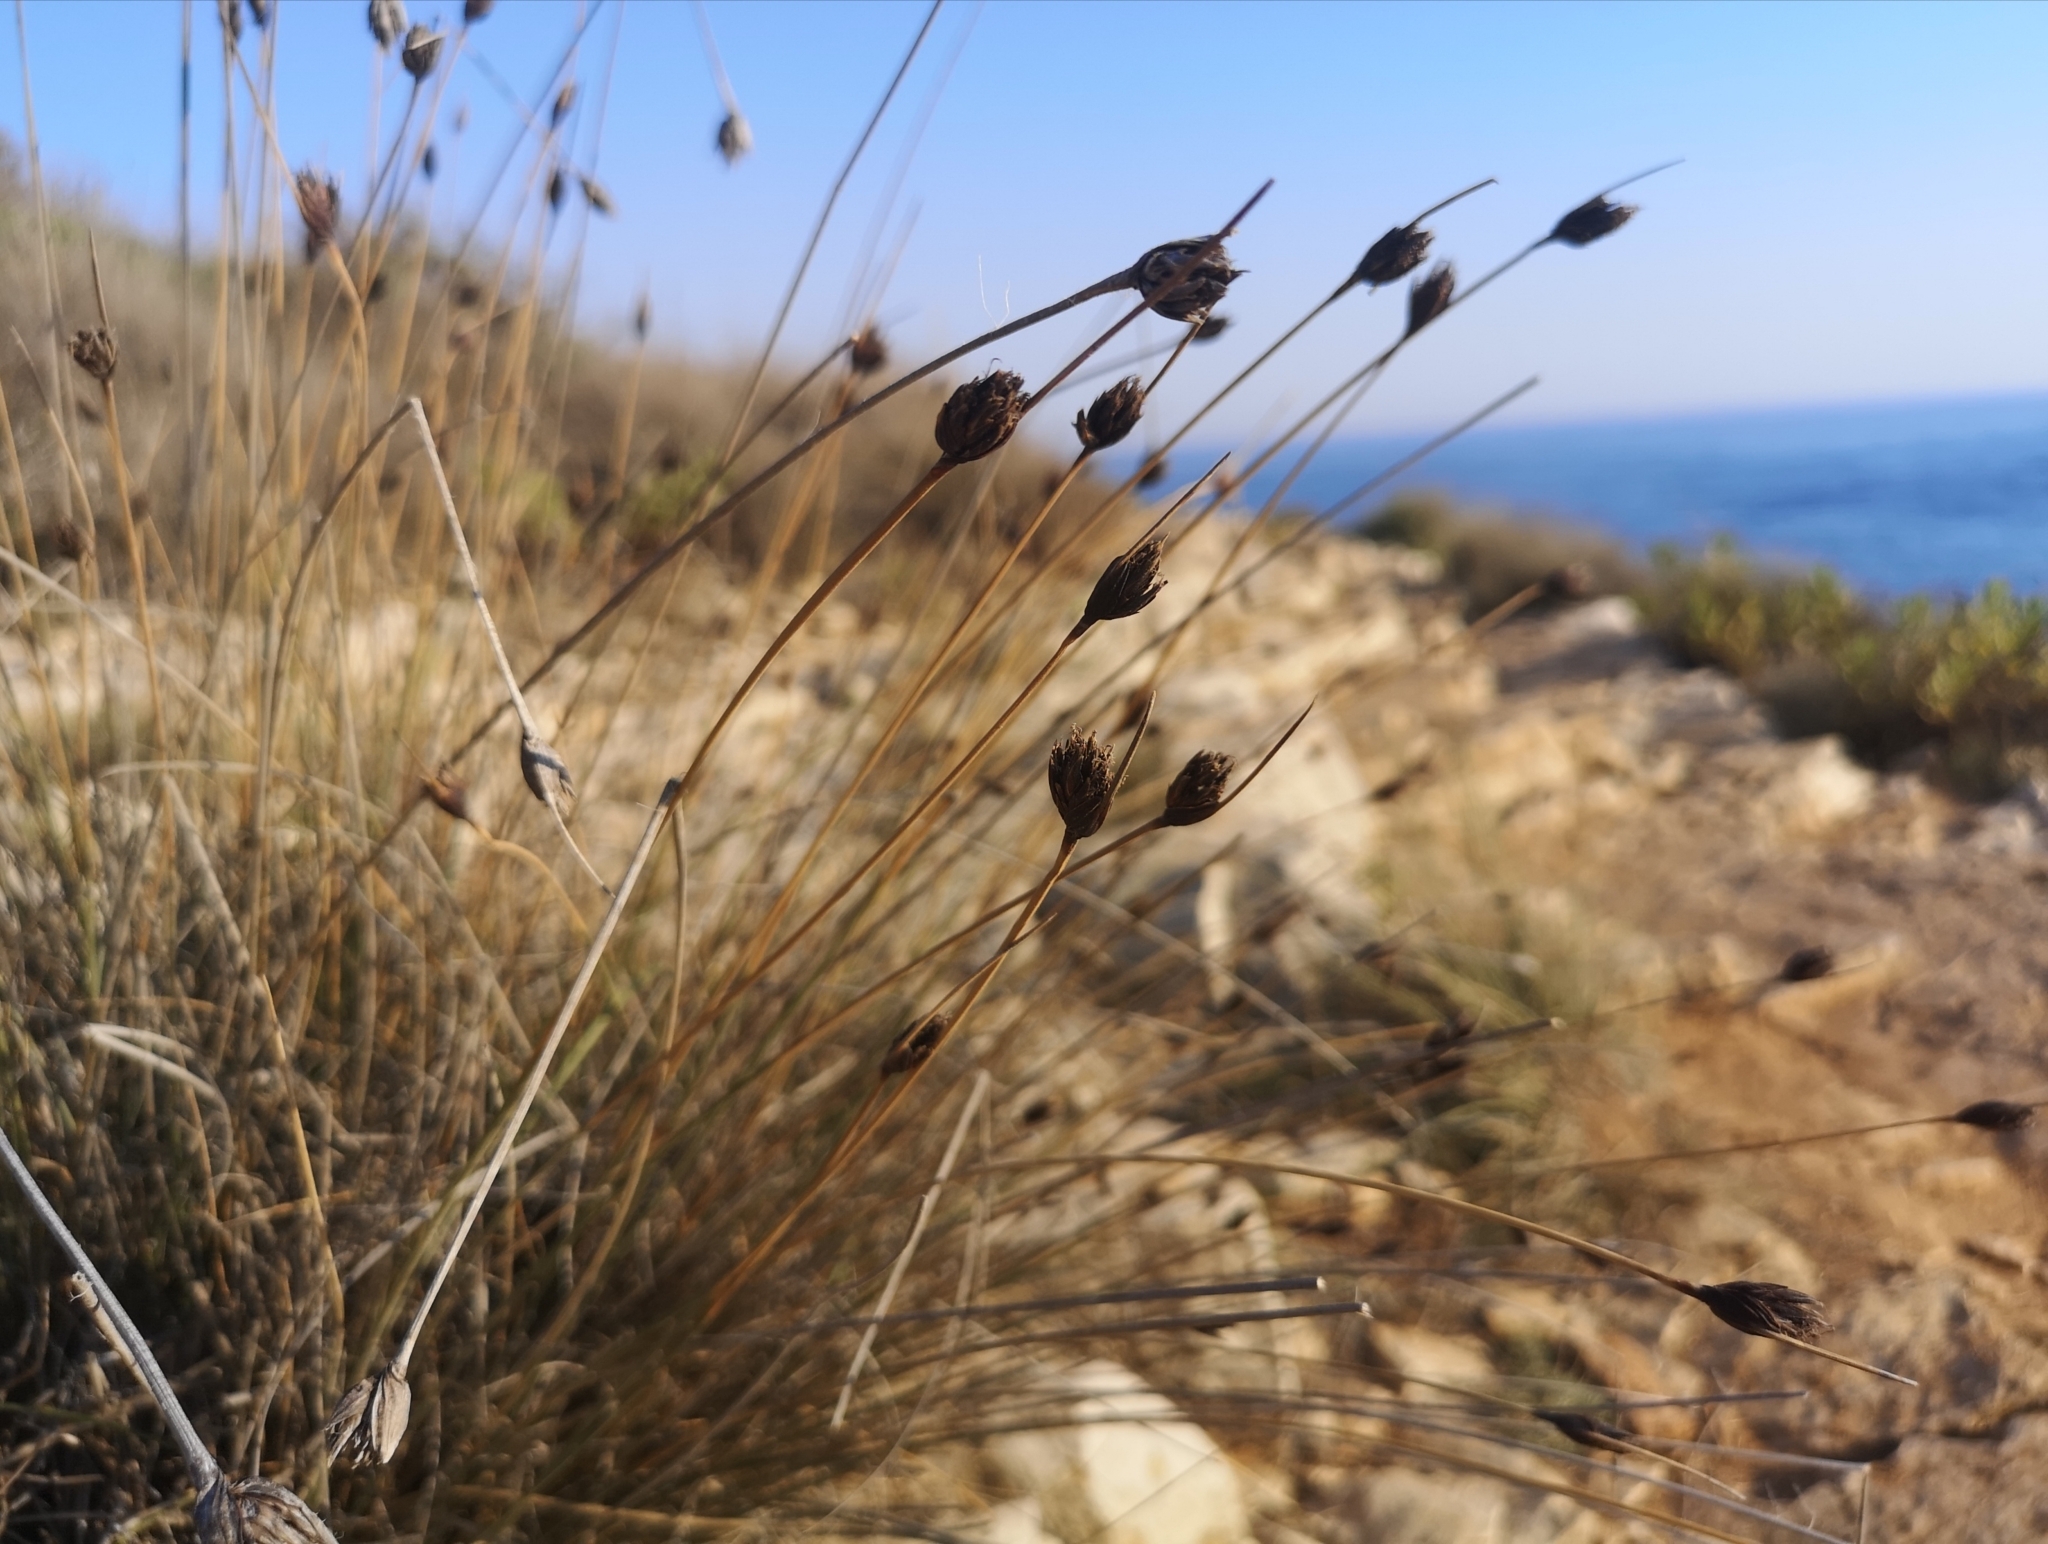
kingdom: Plantae
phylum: Tracheophyta
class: Liliopsida
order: Poales
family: Cyperaceae
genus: Schoenus
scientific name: Schoenus nigricans
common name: Black bog-rush
